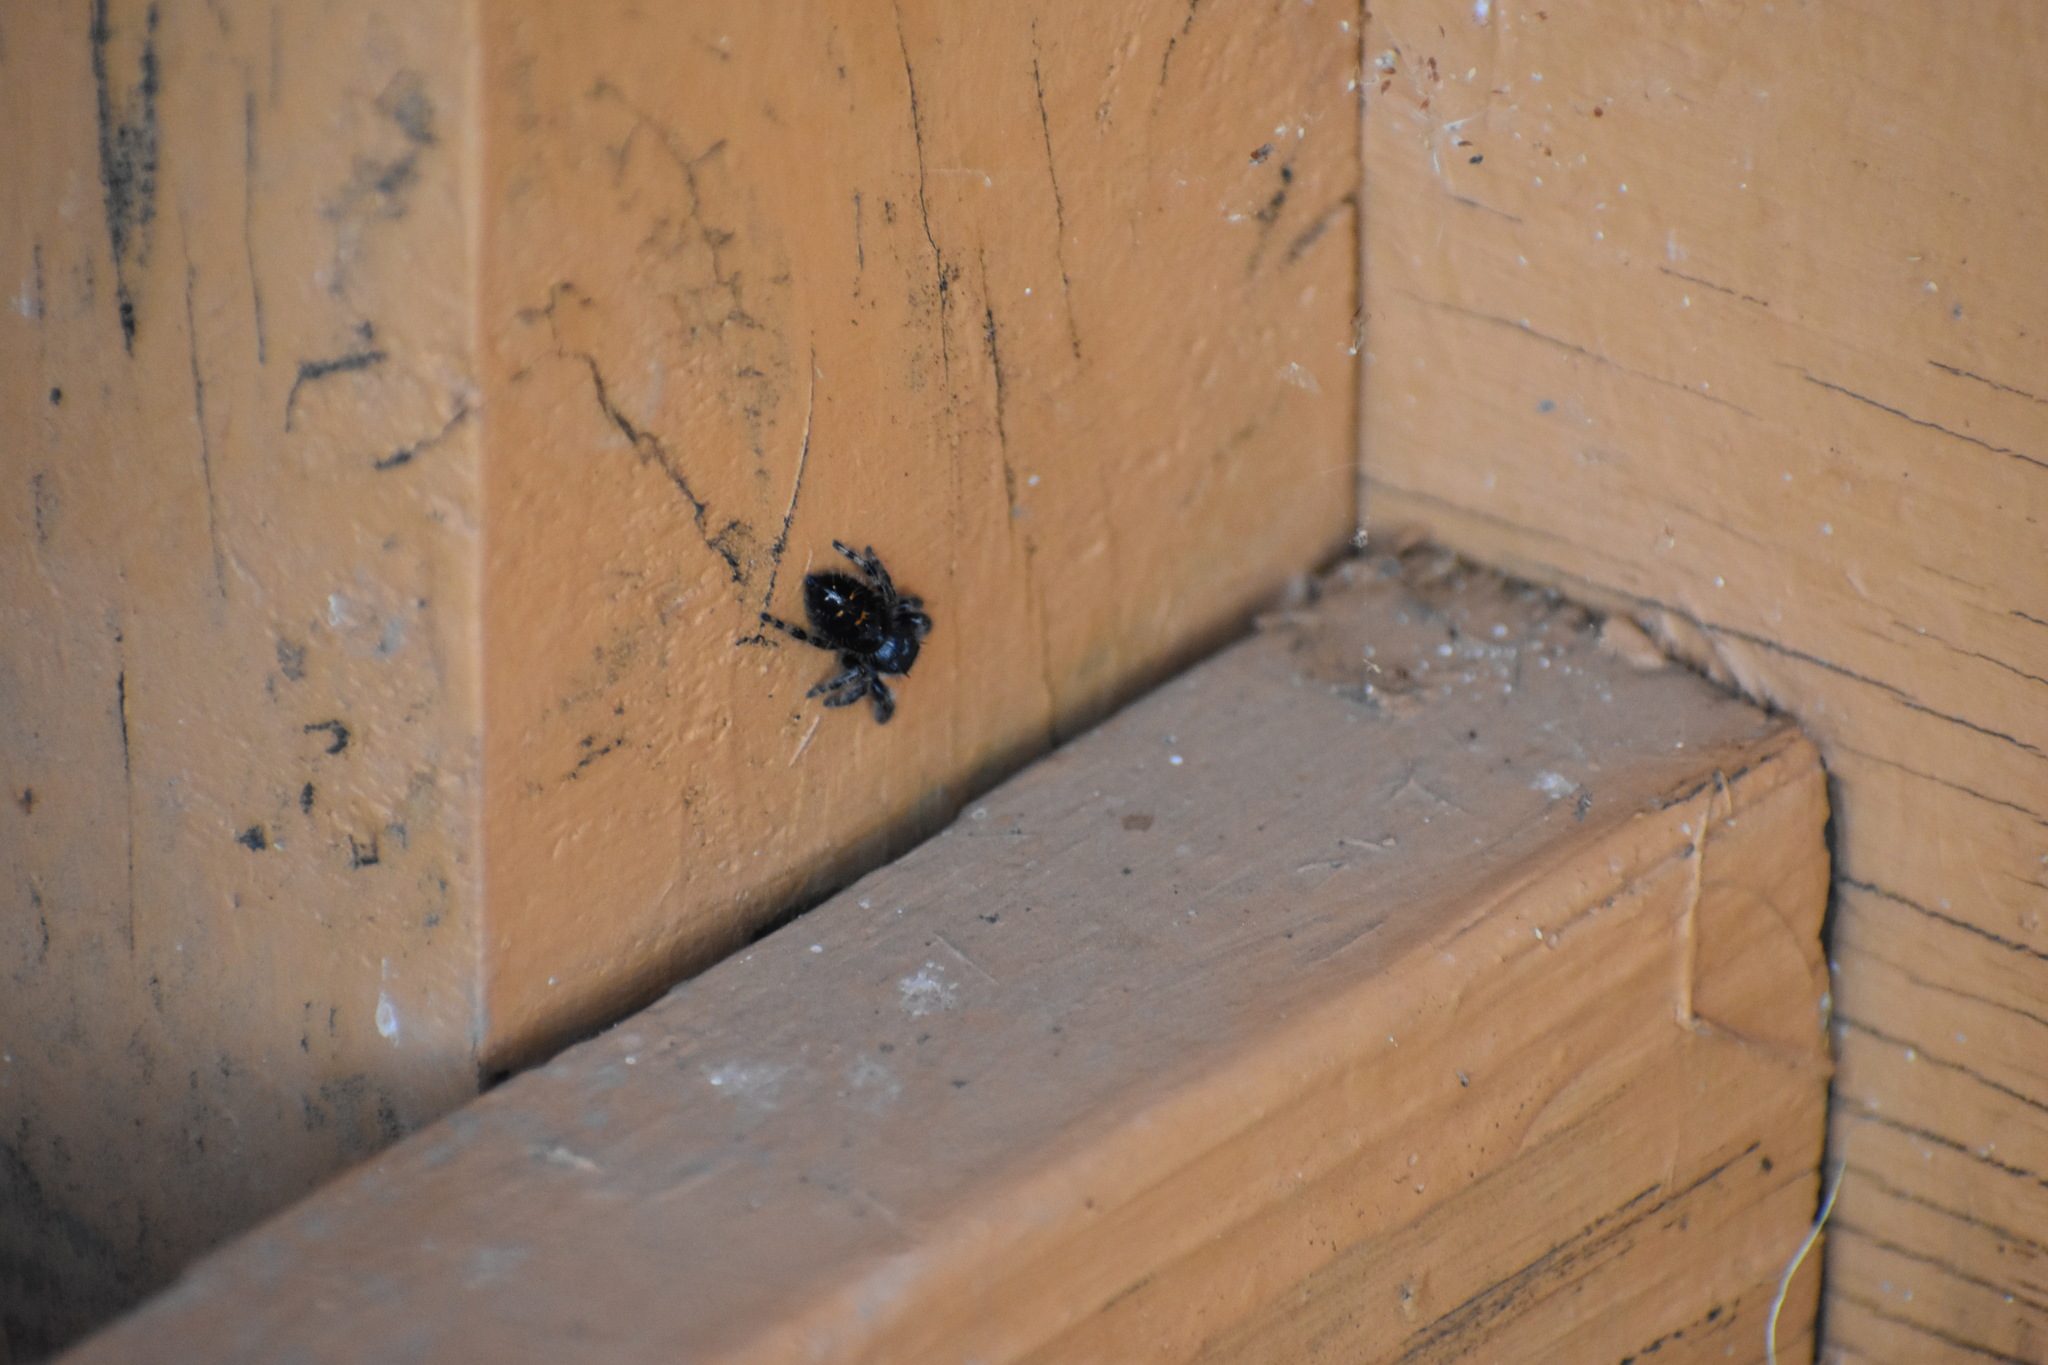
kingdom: Animalia
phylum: Arthropoda
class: Arachnida
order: Araneae
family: Salticidae
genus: Phidippus
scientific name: Phidippus audax
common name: Bold jumper
